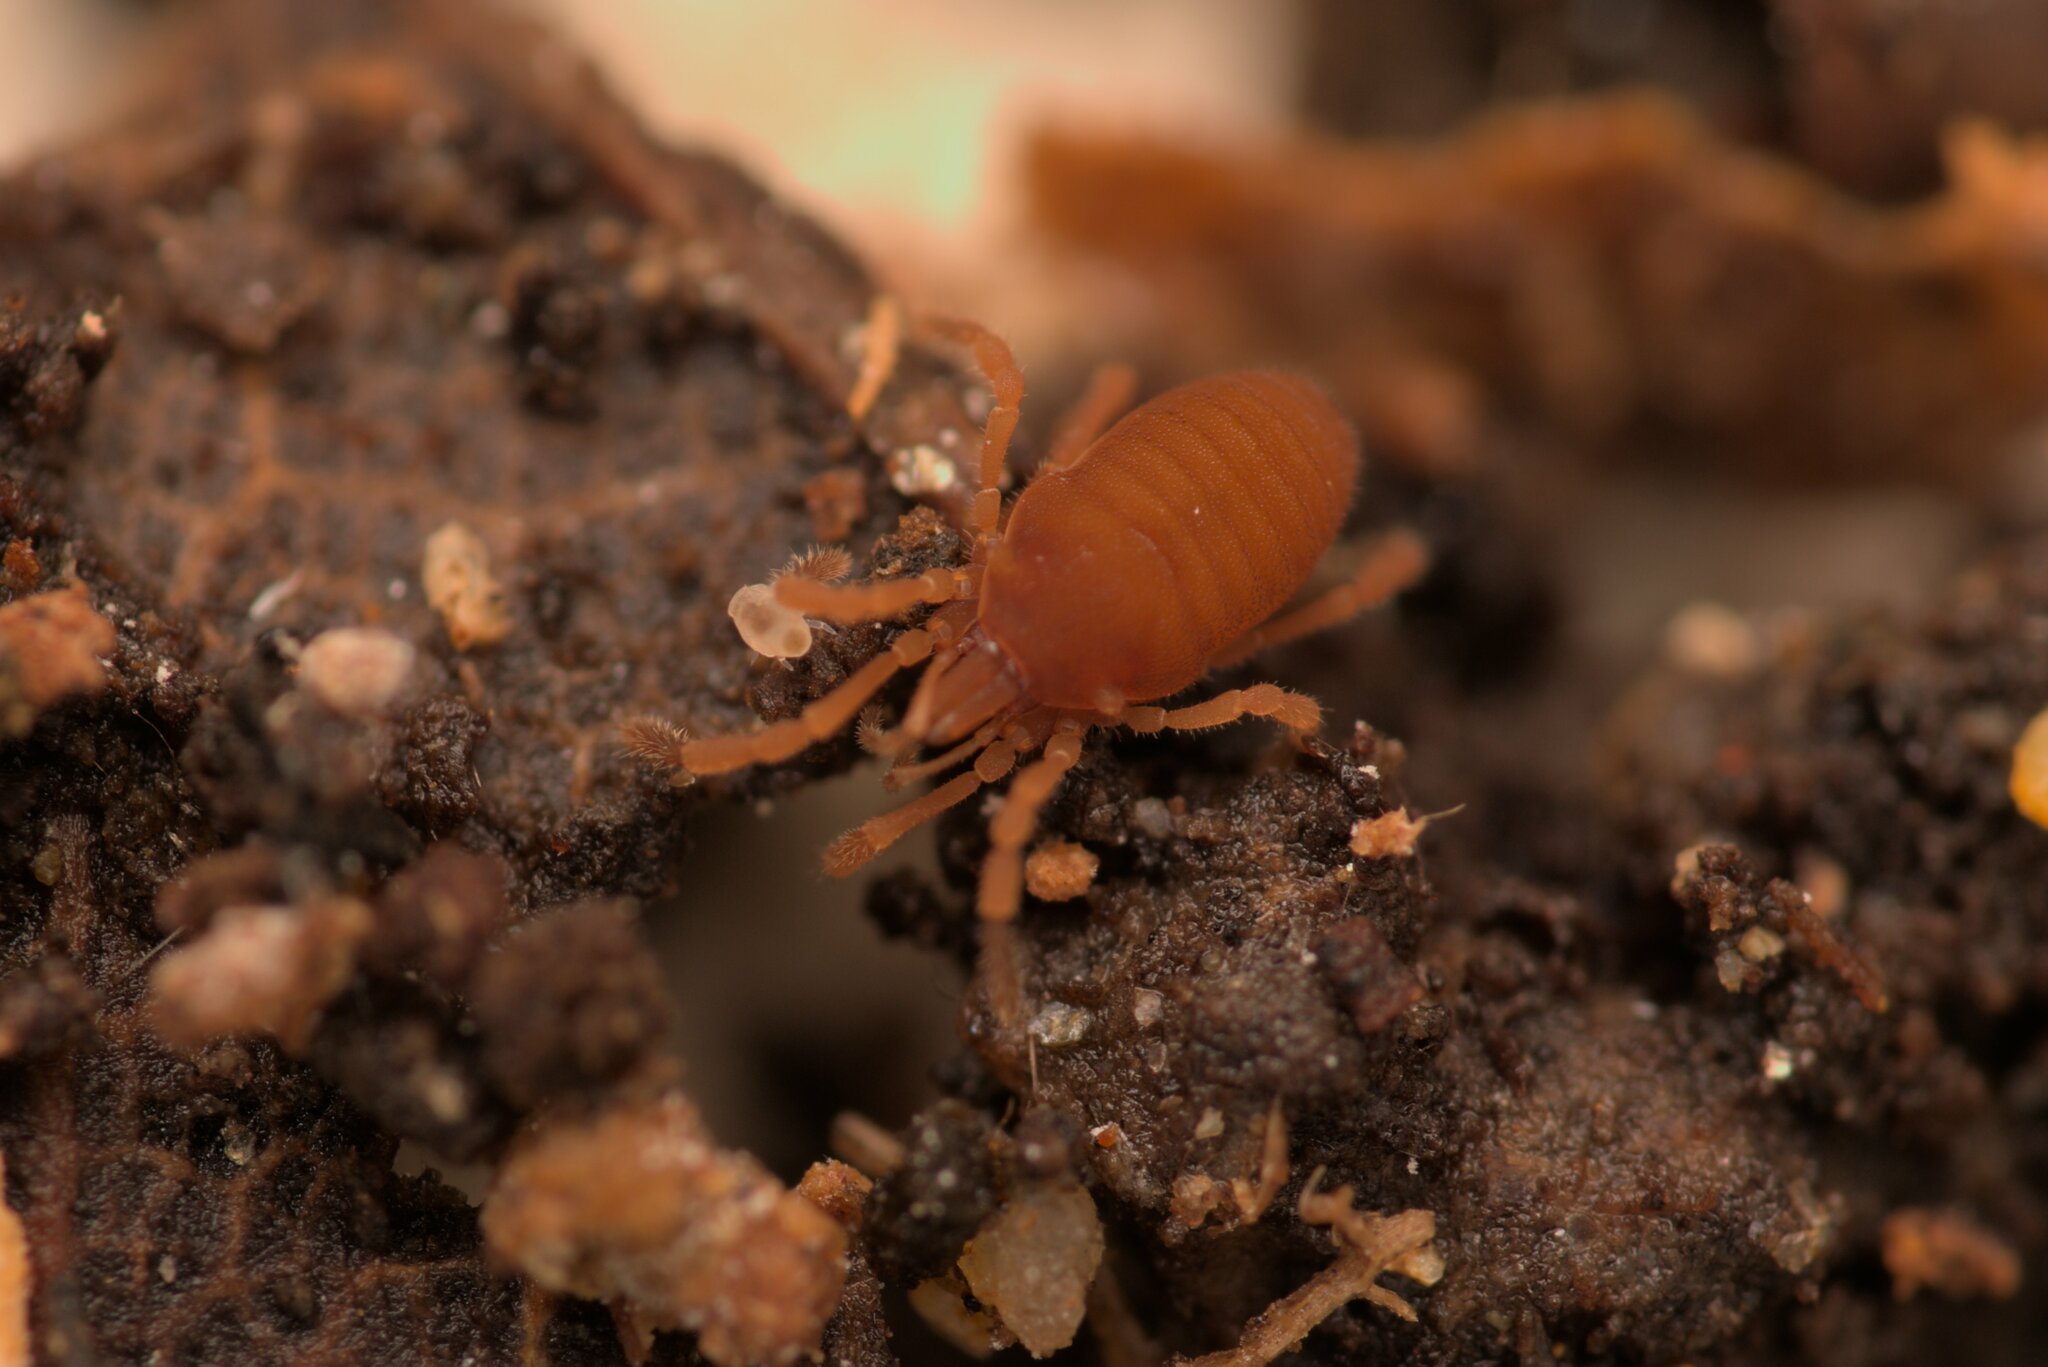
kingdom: Animalia
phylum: Arthropoda
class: Arachnida
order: Opiliones
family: Sironidae
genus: Siro
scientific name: Siro rubens
